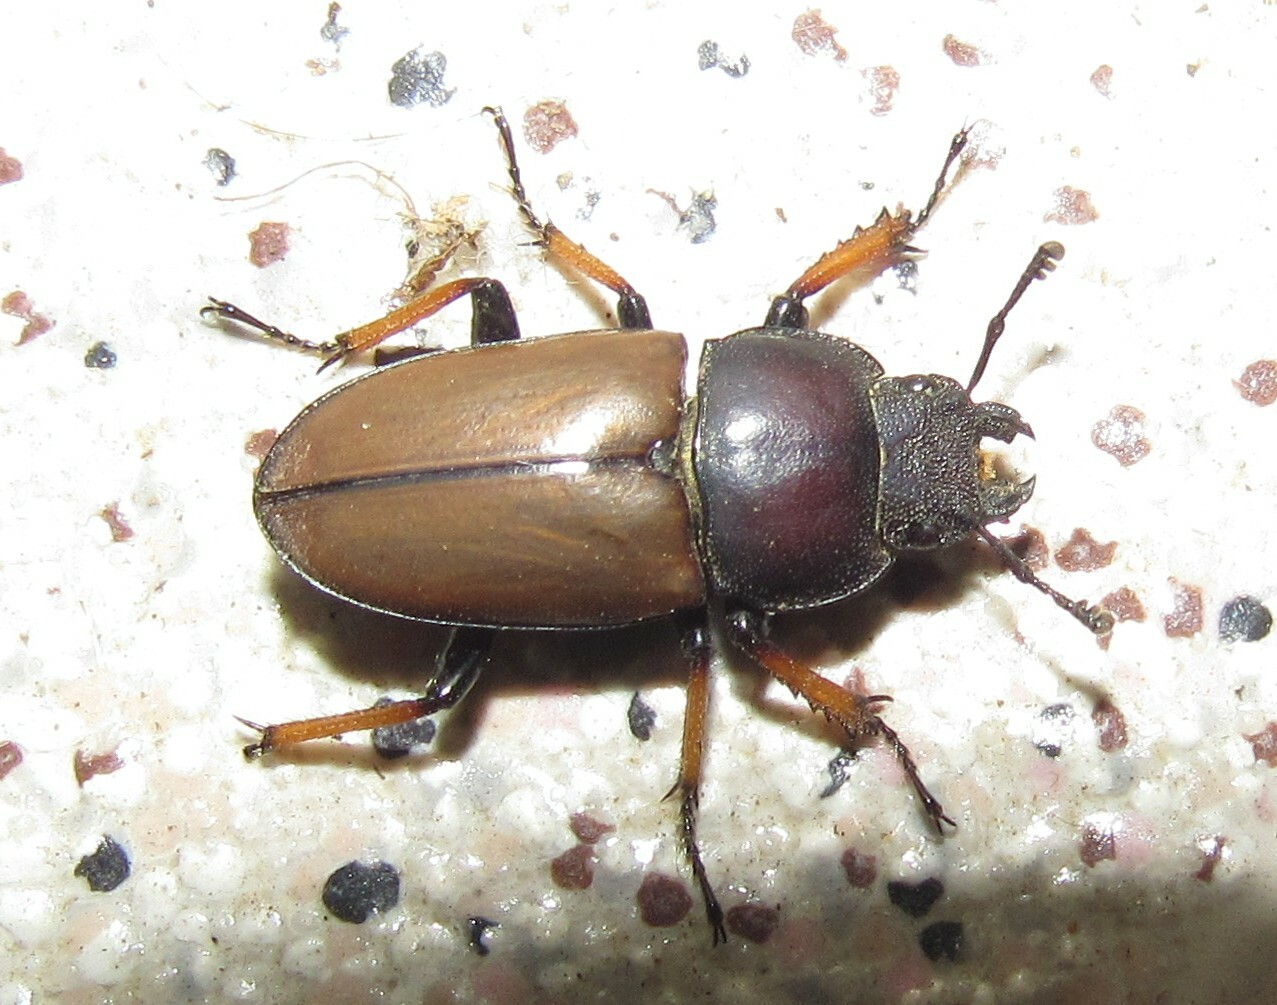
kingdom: Animalia
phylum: Arthropoda
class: Insecta
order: Coleoptera
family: Lucanidae
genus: Leptinopterus
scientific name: Leptinopterus tibialis
